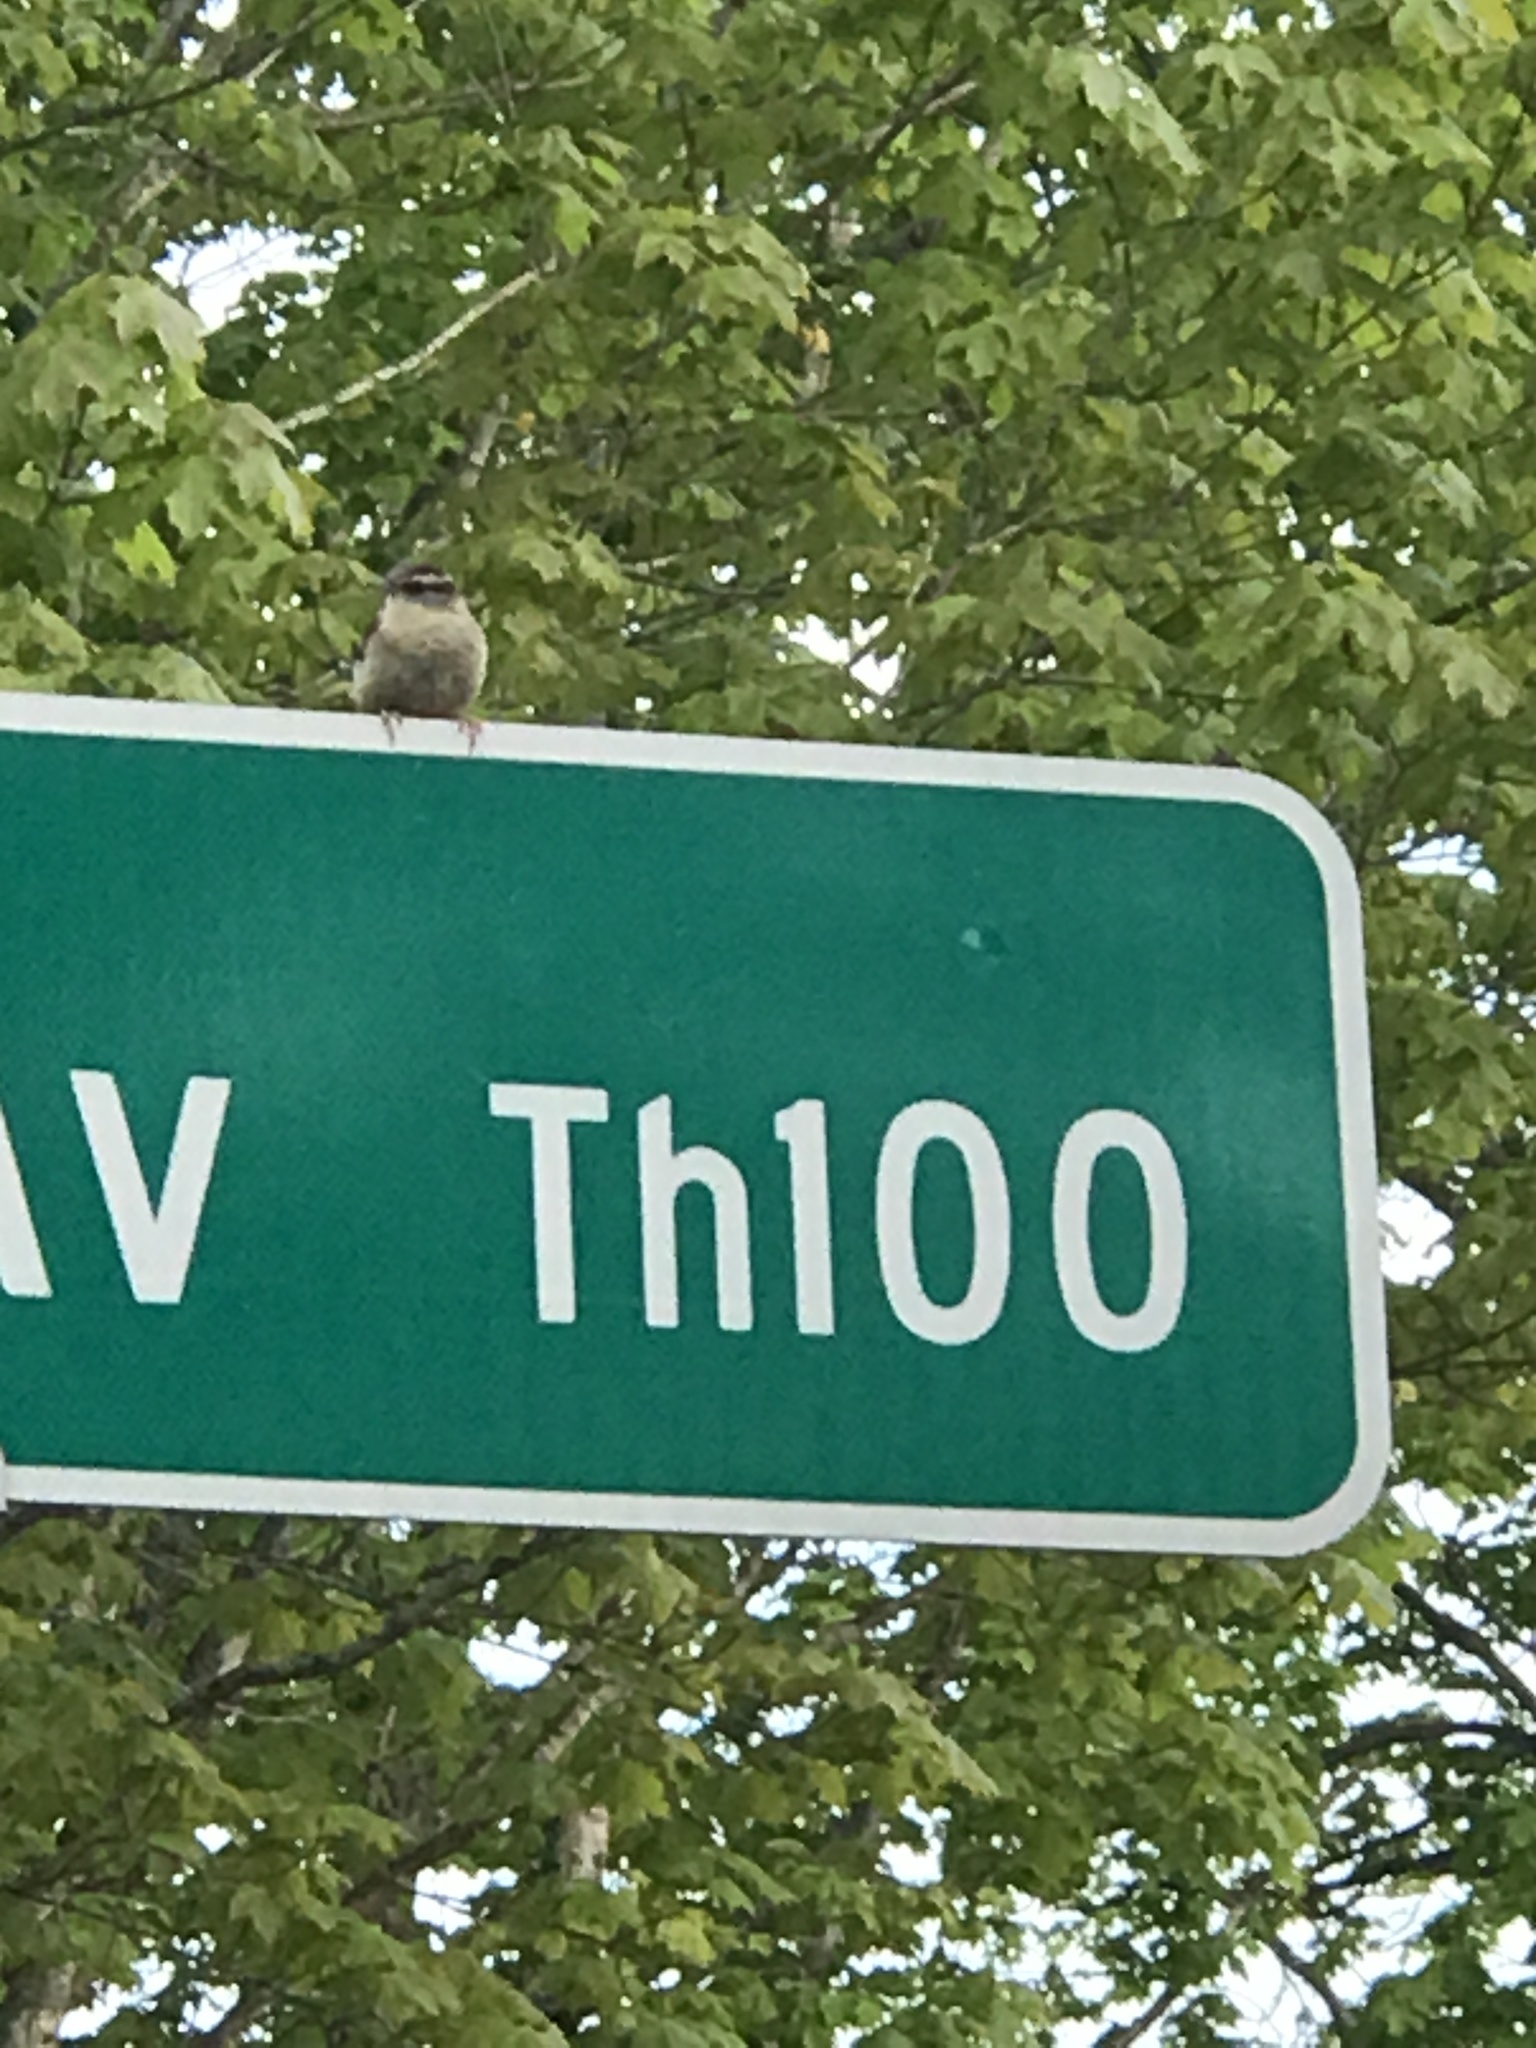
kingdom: Animalia
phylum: Chordata
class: Aves
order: Passeriformes
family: Troglodytidae
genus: Thryothorus
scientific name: Thryothorus ludovicianus
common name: Carolina wren
